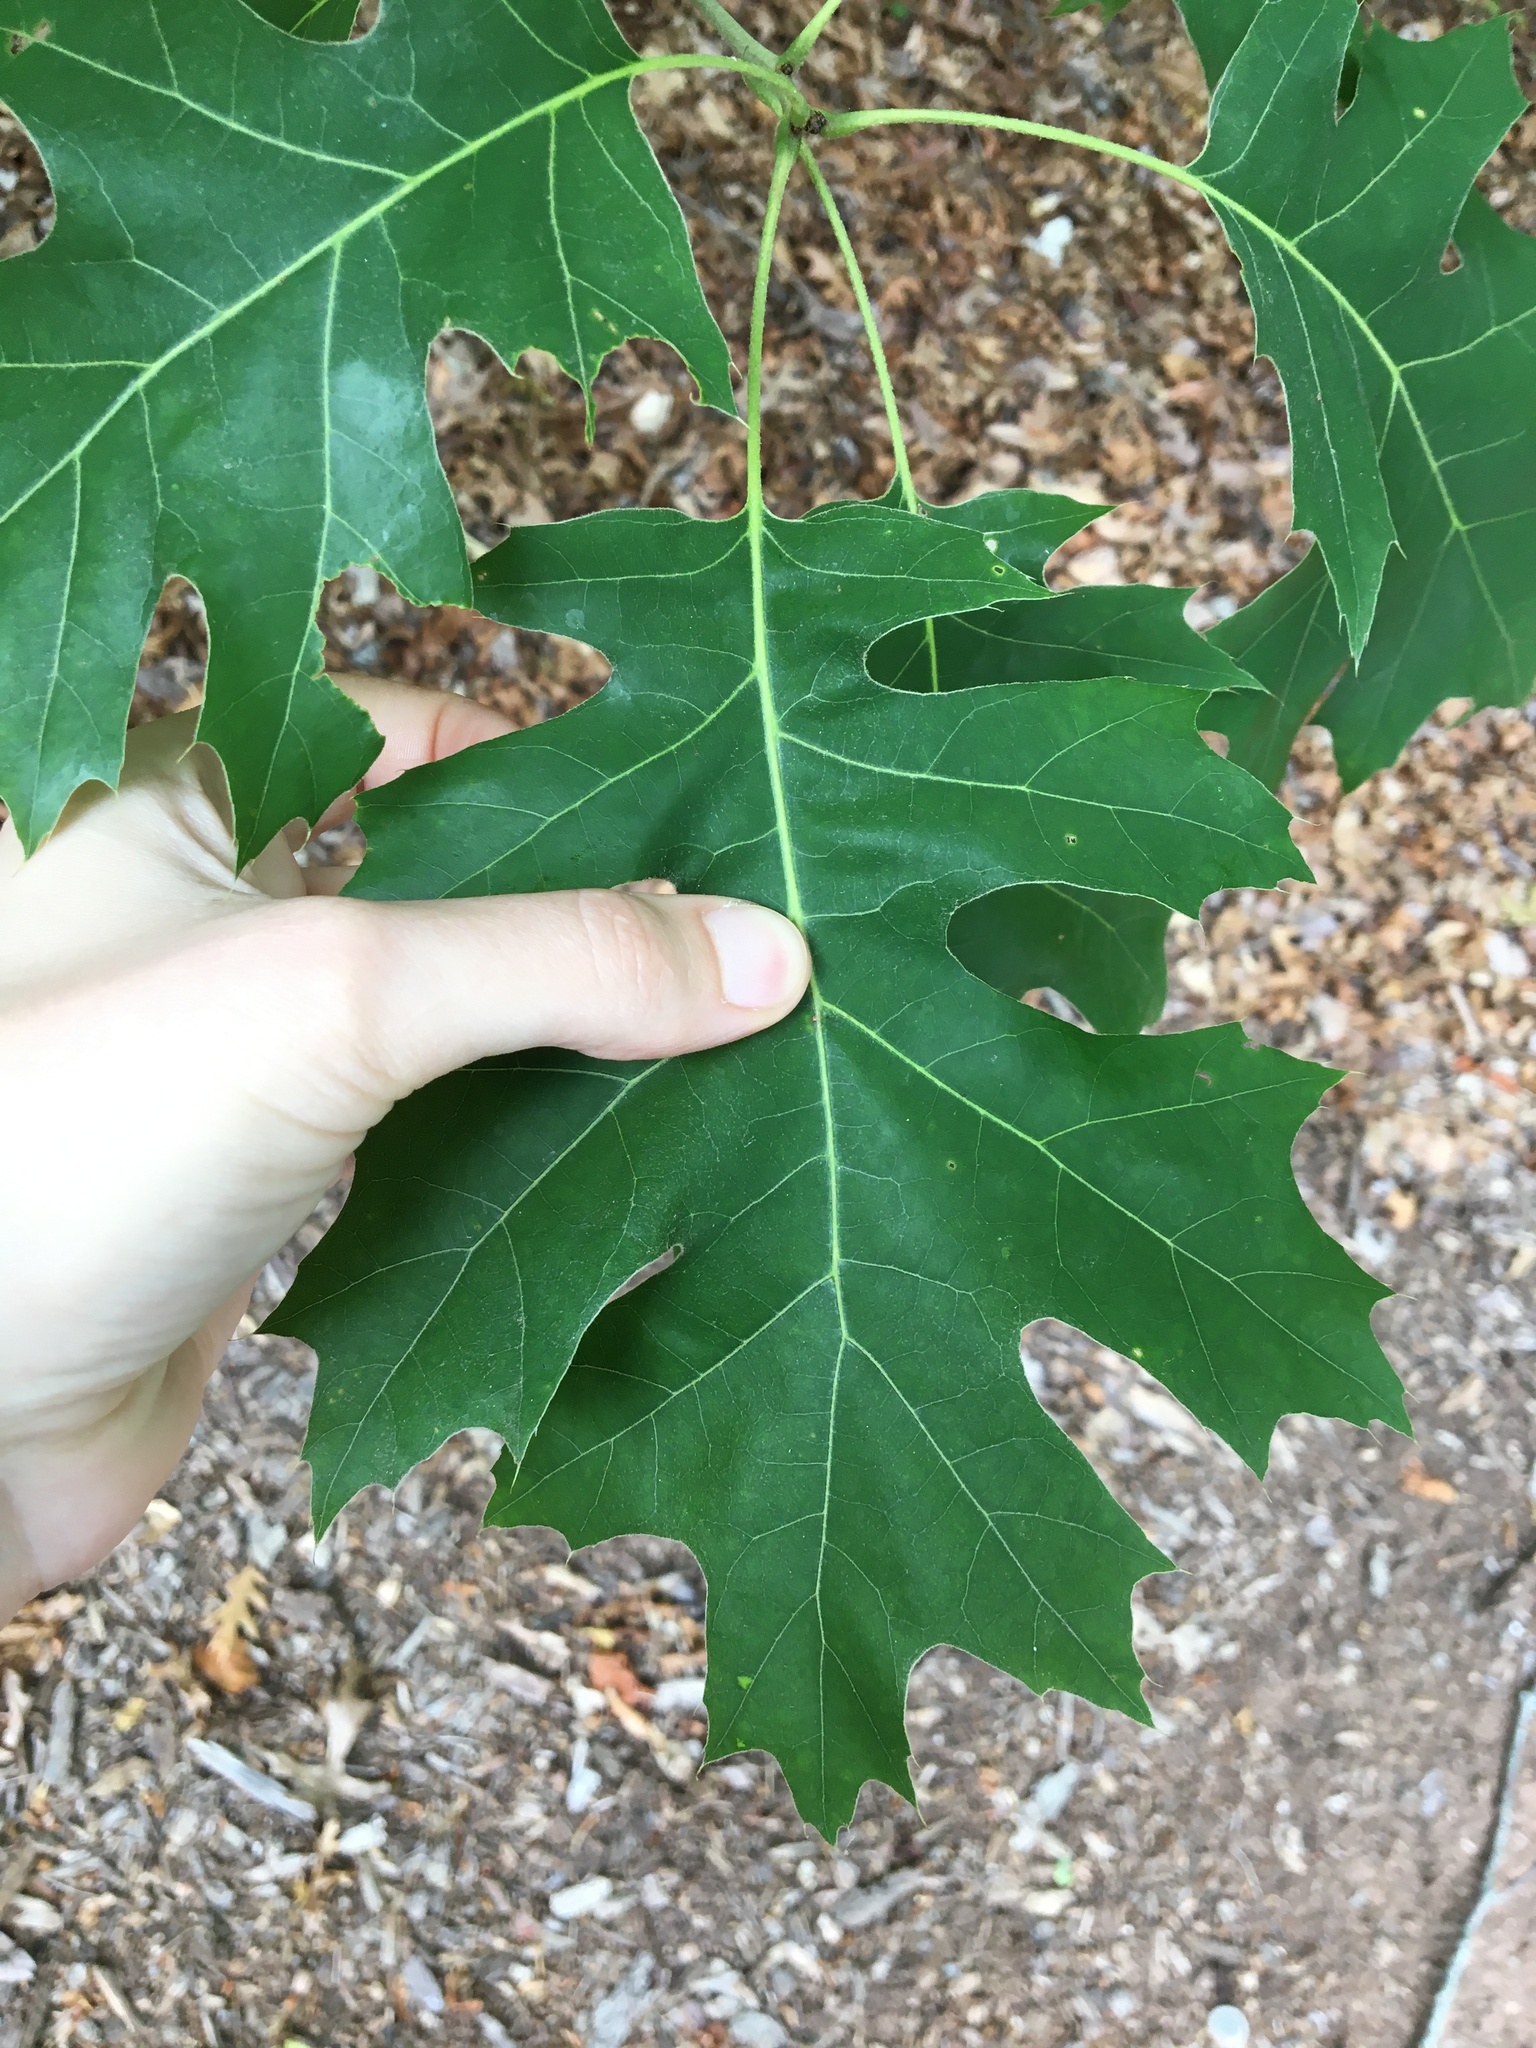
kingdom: Plantae
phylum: Tracheophyta
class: Magnoliopsida
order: Fagales
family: Fagaceae
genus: Quercus
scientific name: Quercus rubra
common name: Red oak
